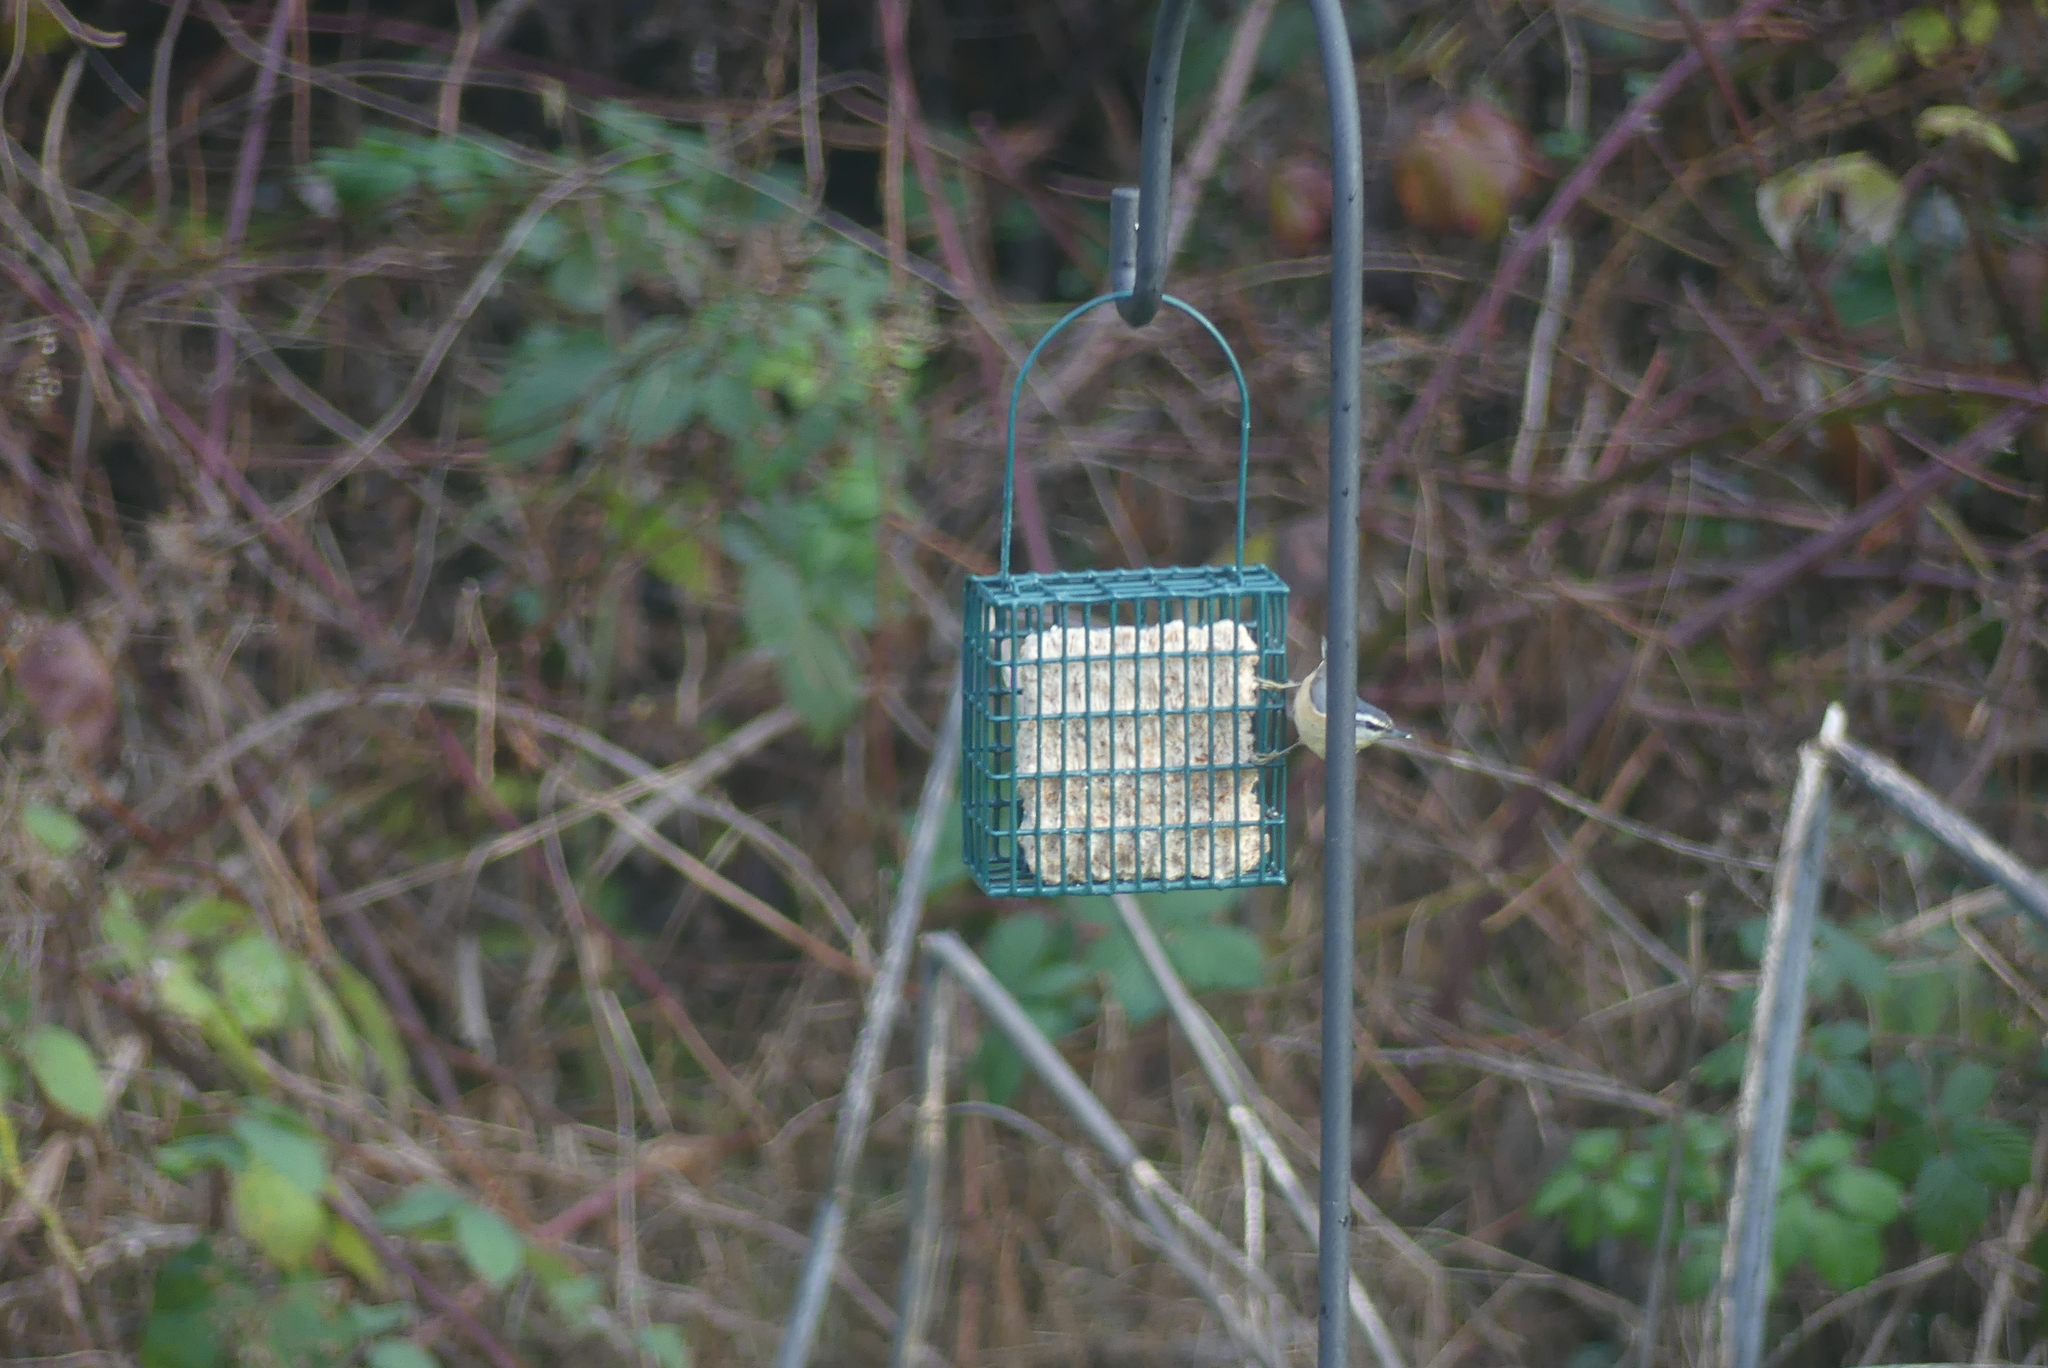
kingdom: Animalia
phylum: Chordata
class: Aves
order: Passeriformes
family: Sittidae
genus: Sitta
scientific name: Sitta canadensis
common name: Red-breasted nuthatch
